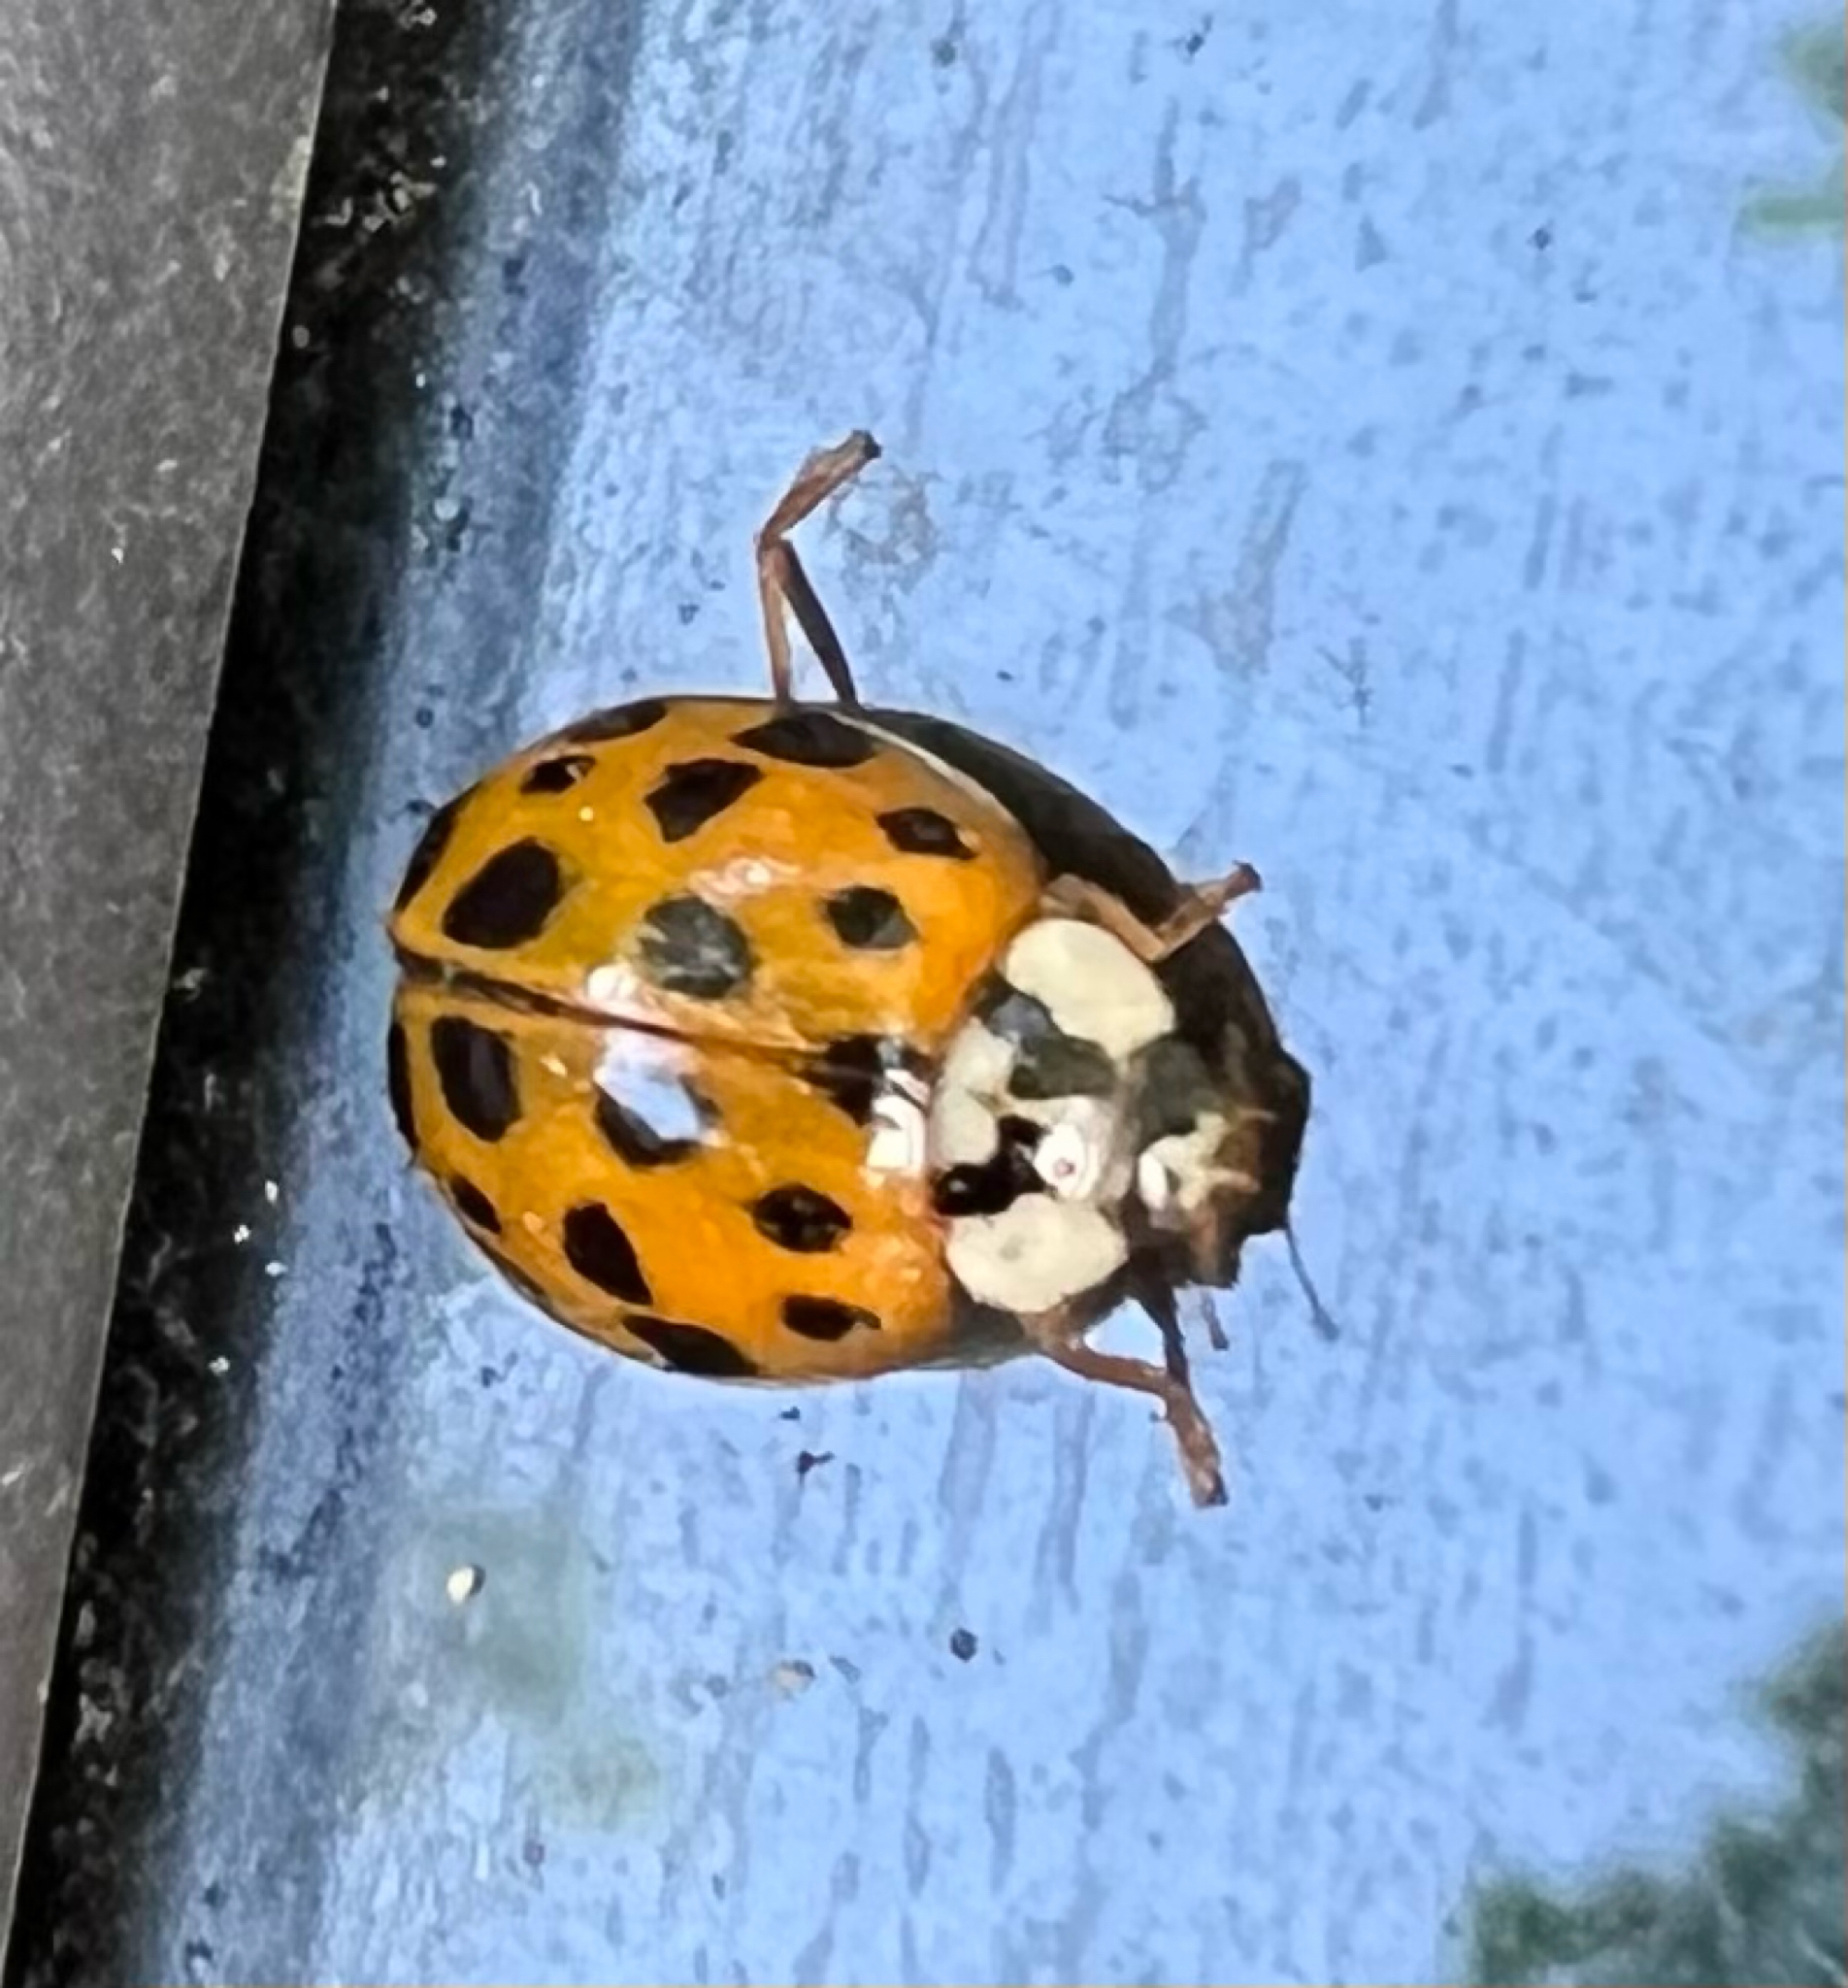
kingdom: Animalia
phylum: Arthropoda
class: Insecta
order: Coleoptera
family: Coccinellidae
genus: Harmonia
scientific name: Harmonia axyridis
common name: Harlequin ladybird
